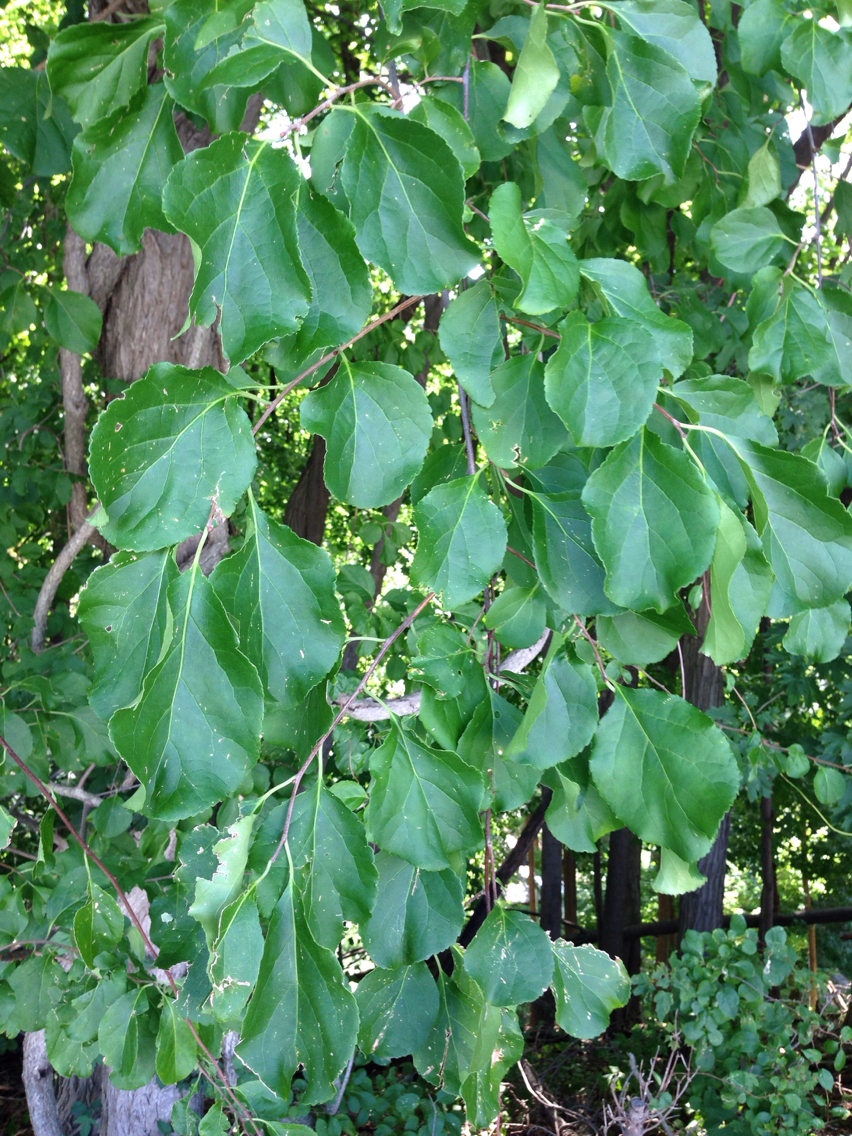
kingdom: Plantae
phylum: Tracheophyta
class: Magnoliopsida
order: Celastrales
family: Celastraceae
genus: Celastrus
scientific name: Celastrus orbiculatus
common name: Oriental bittersweet
